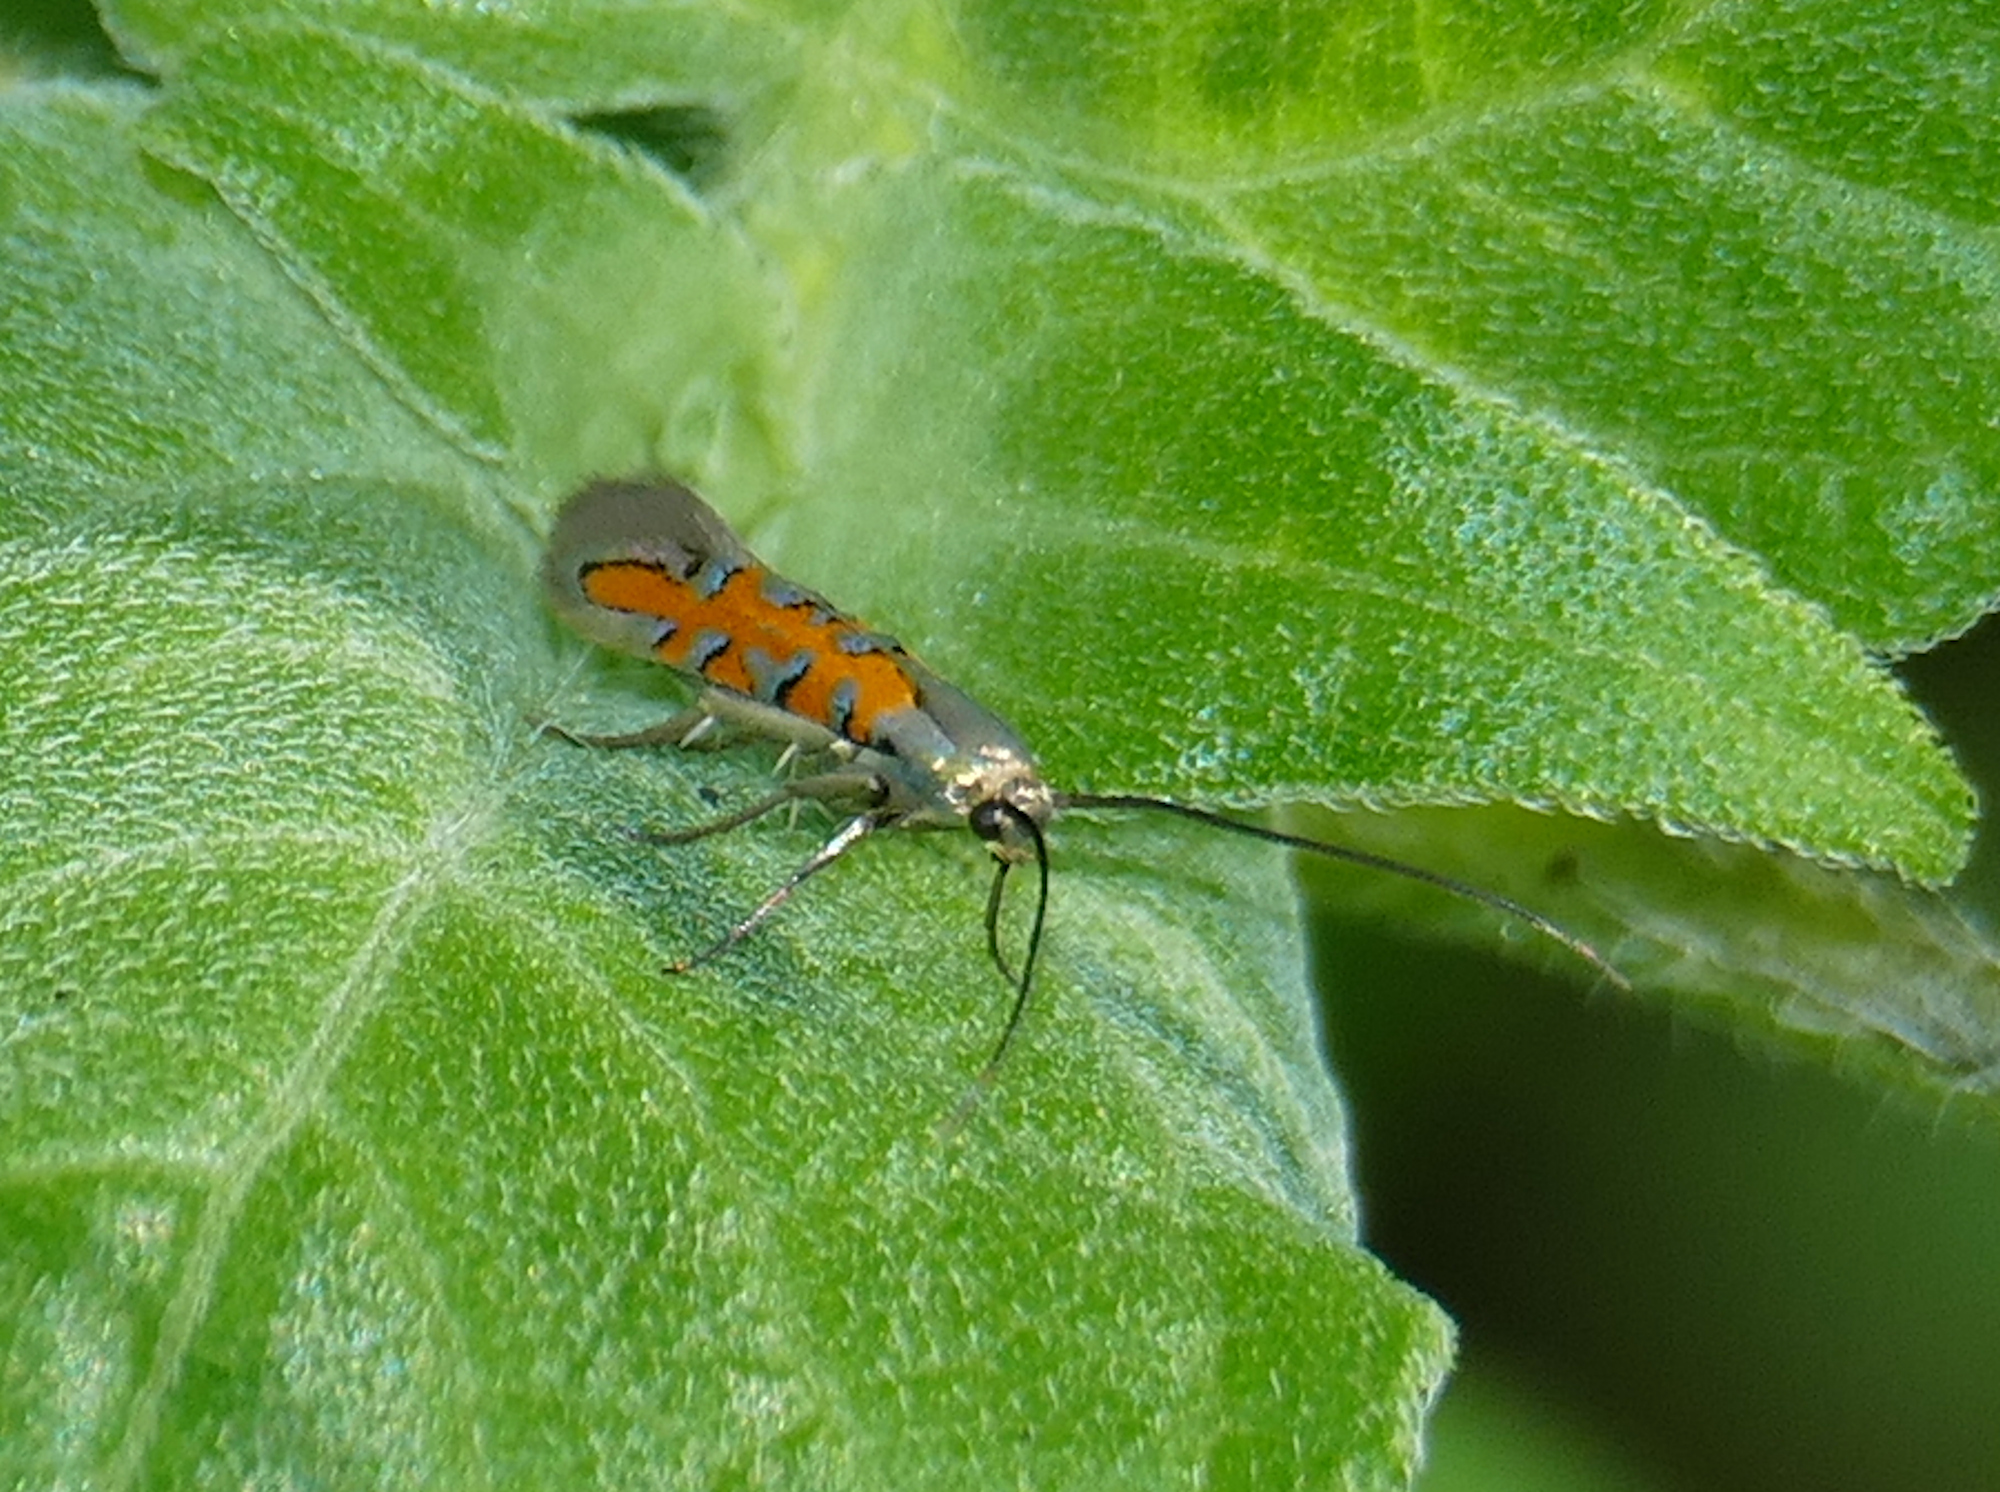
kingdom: Animalia
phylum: Arthropoda
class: Insecta
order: Lepidoptera
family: Heliodinidae
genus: Lamprolophus
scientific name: Lamprolophus
